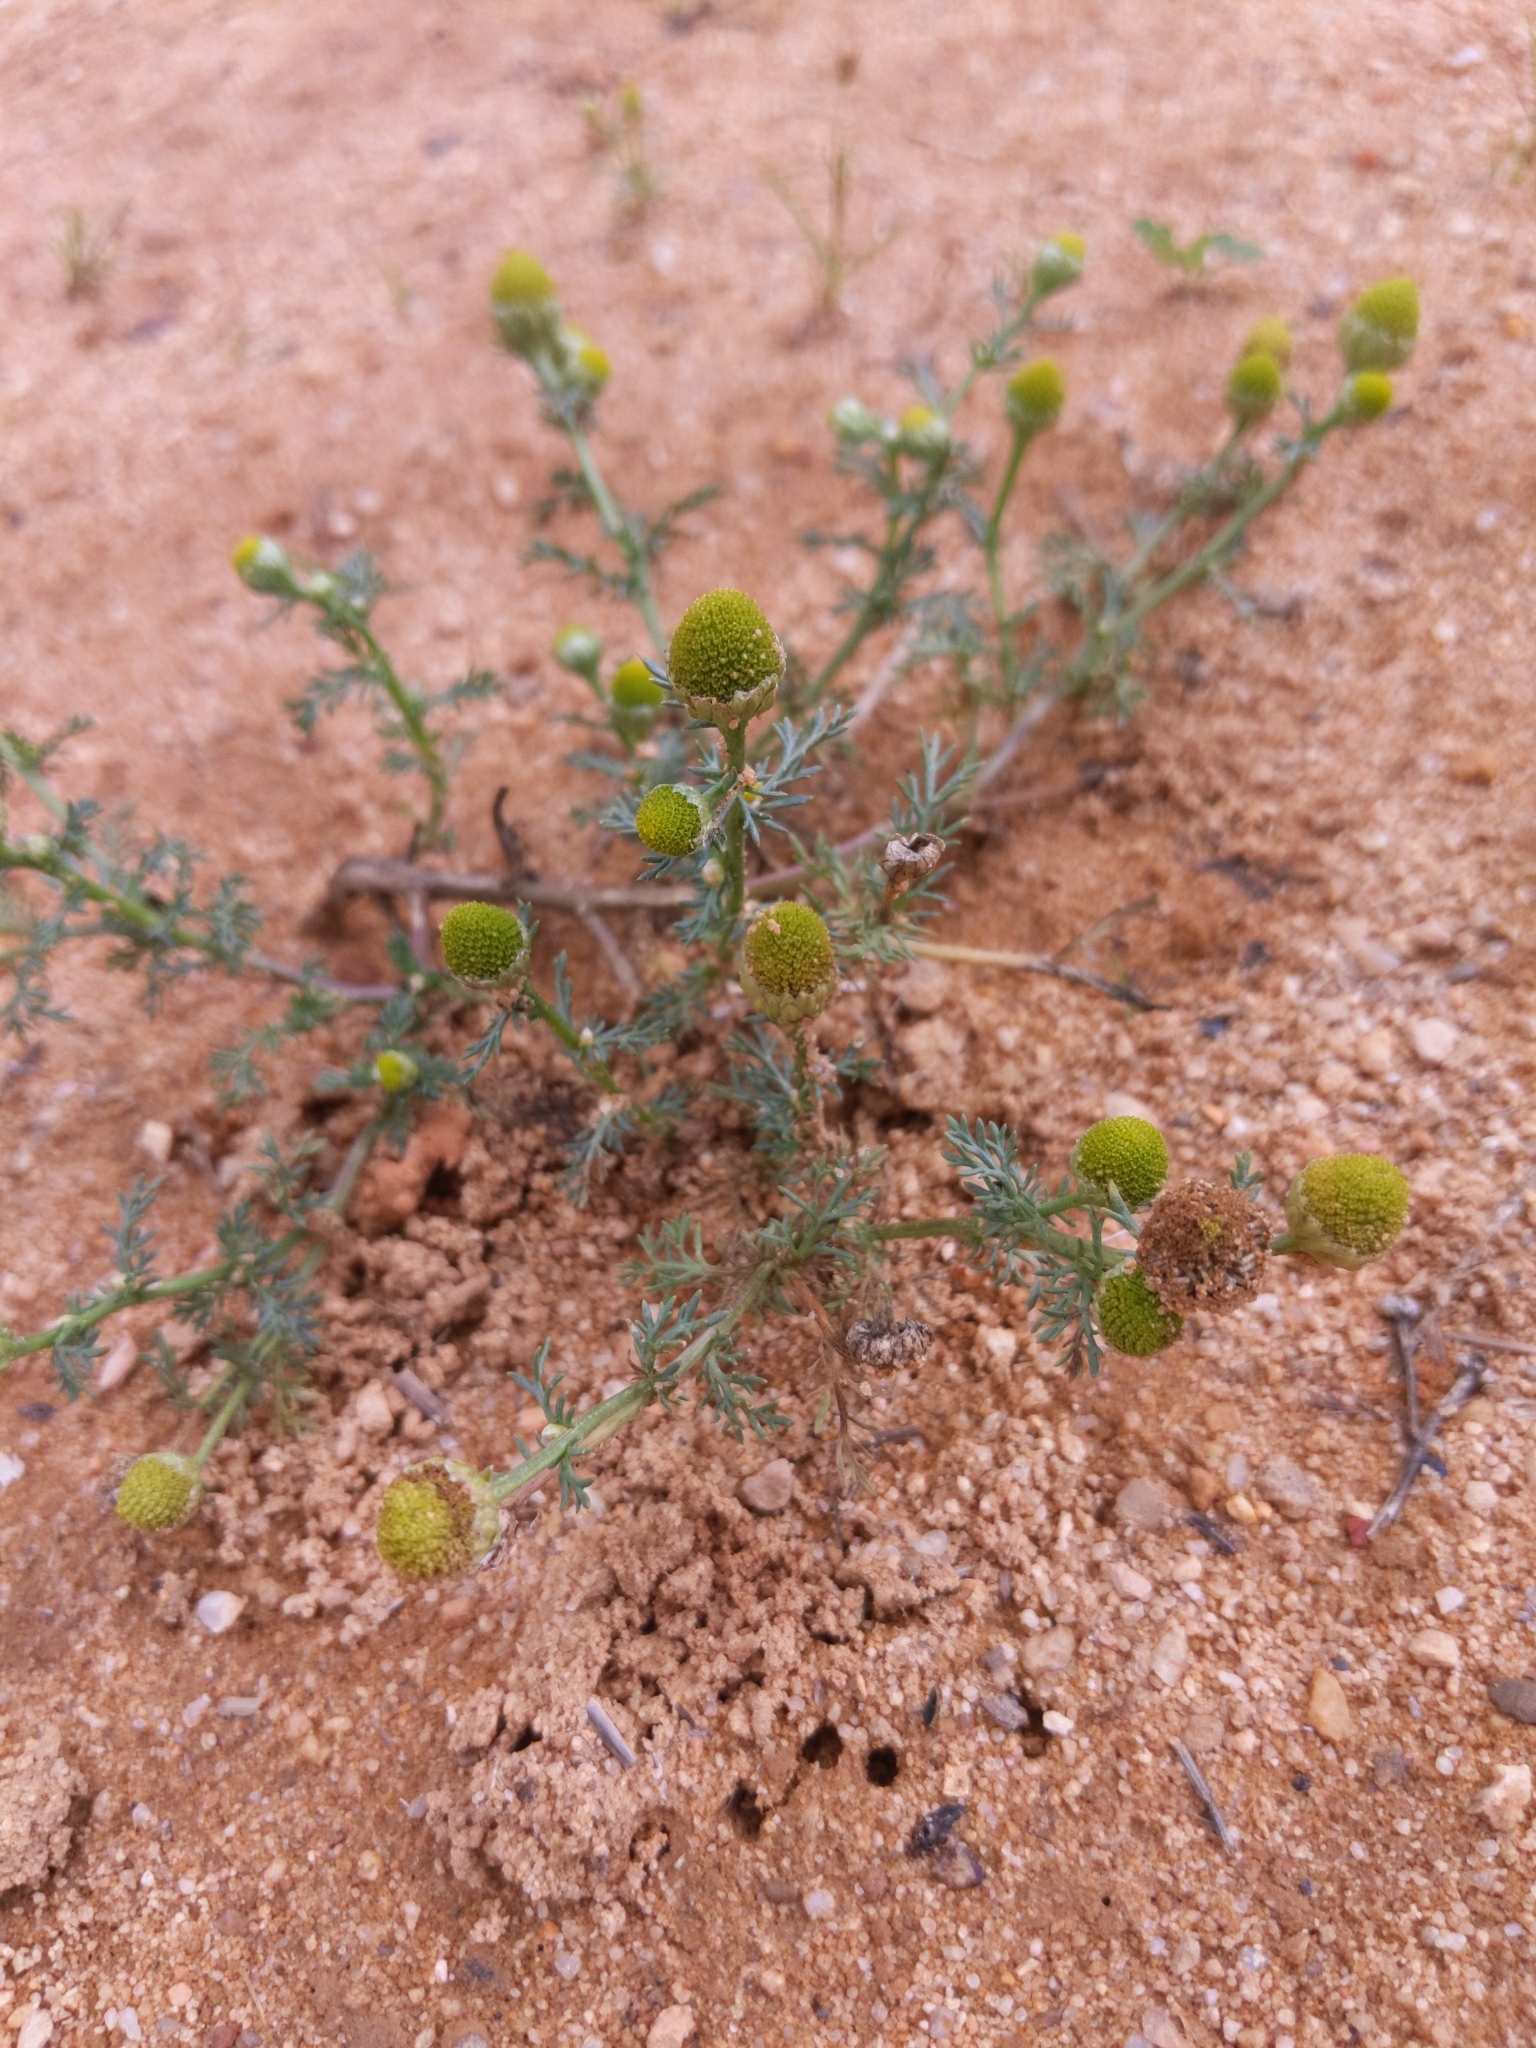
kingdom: Plantae
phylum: Tracheophyta
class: Magnoliopsida
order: Asterales
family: Asteraceae
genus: Matricaria
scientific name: Matricaria discoidea
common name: Disc mayweed
